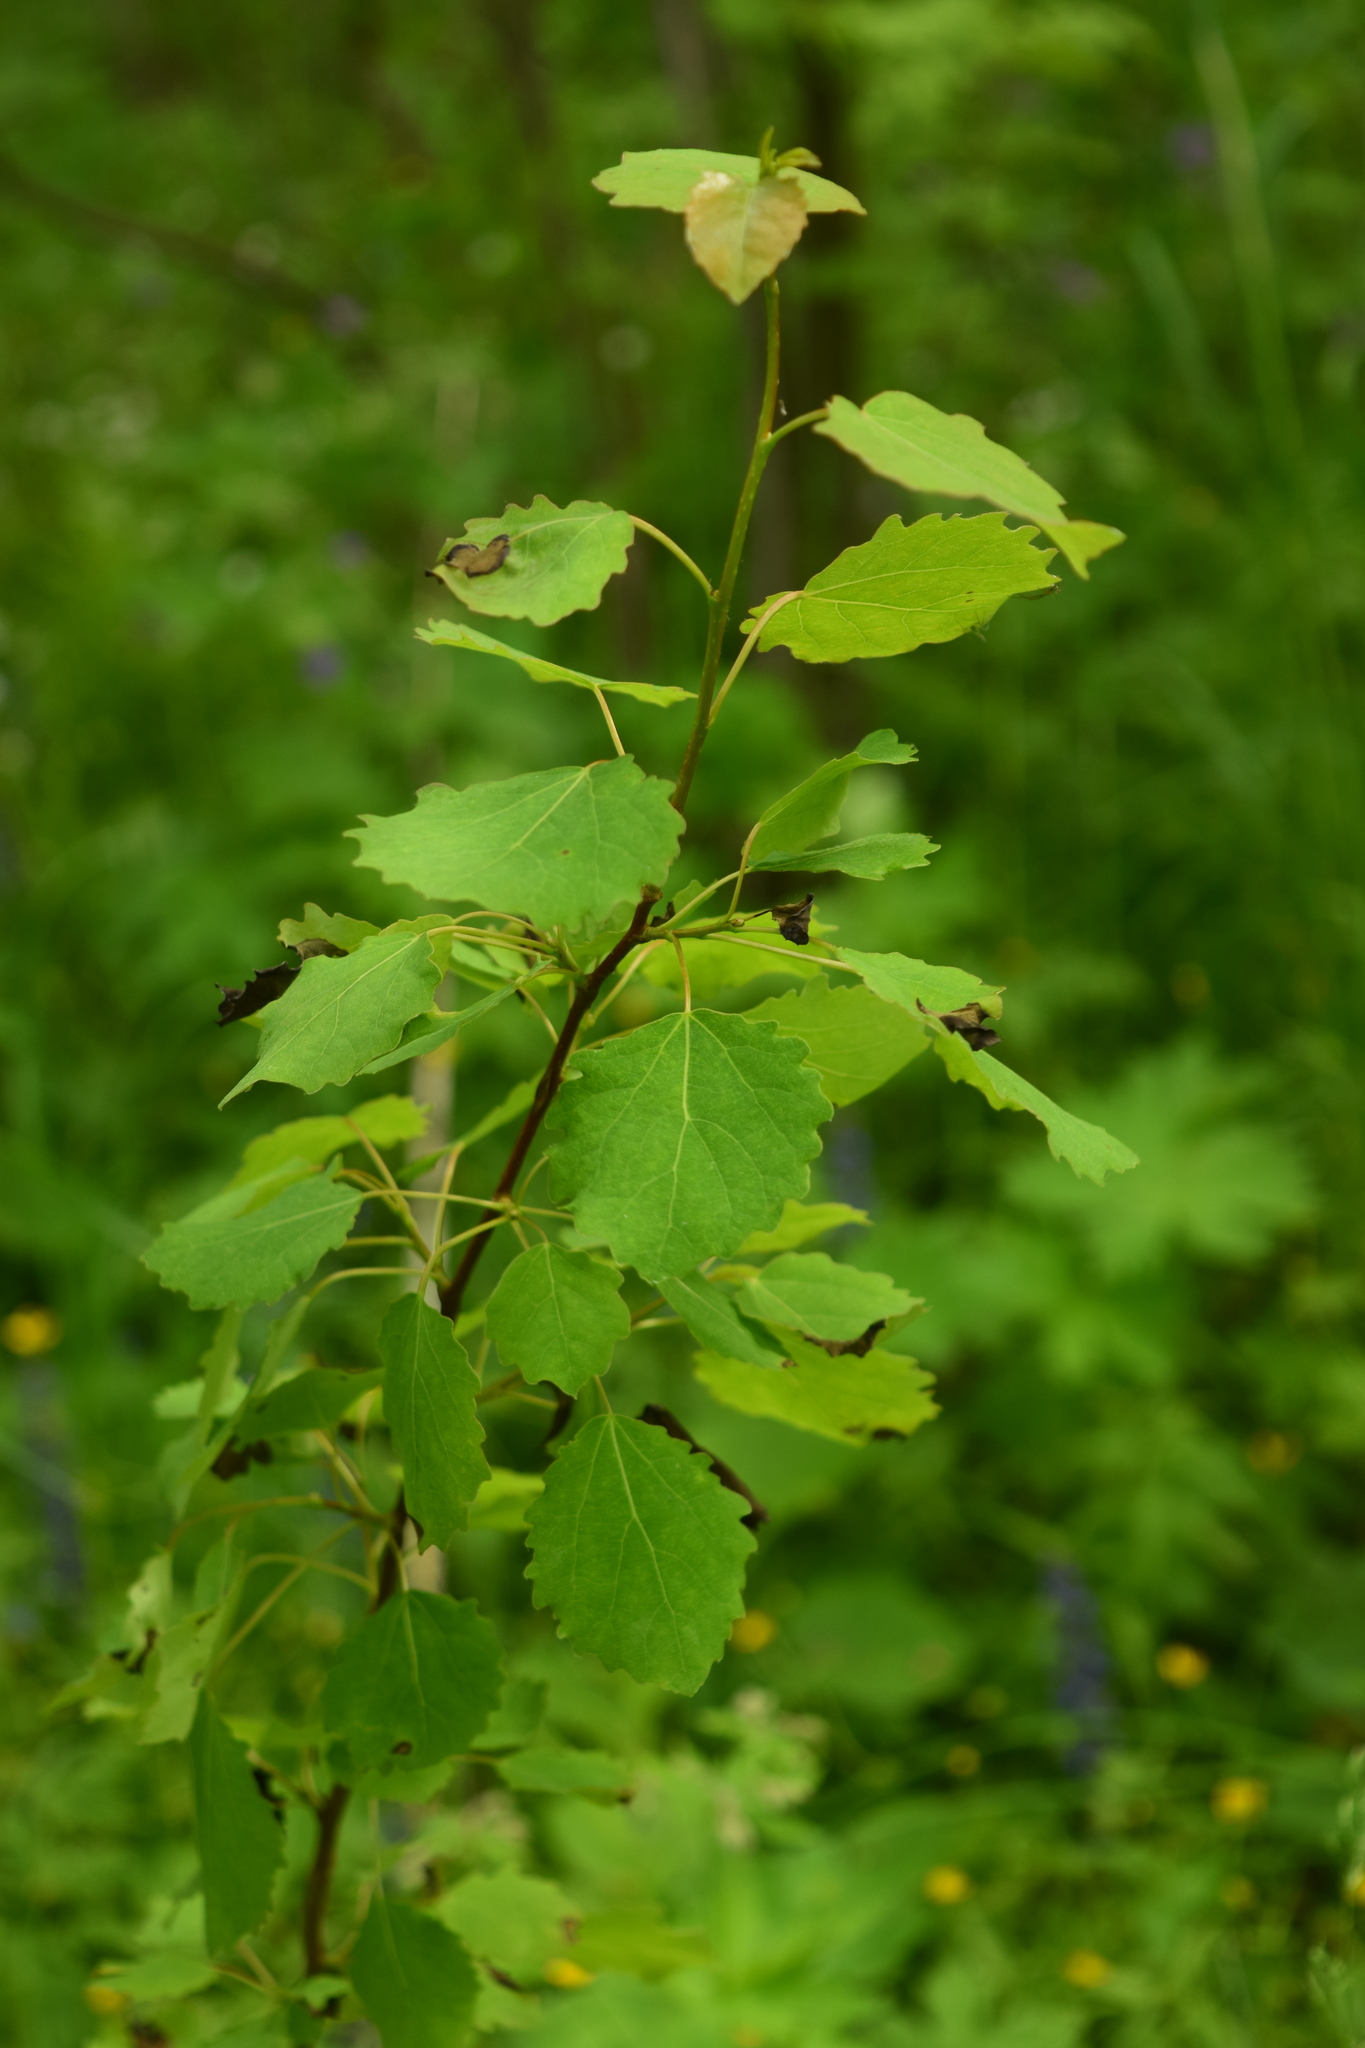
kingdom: Plantae
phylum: Tracheophyta
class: Magnoliopsida
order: Malpighiales
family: Salicaceae
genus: Populus
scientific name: Populus tremula
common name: European aspen
